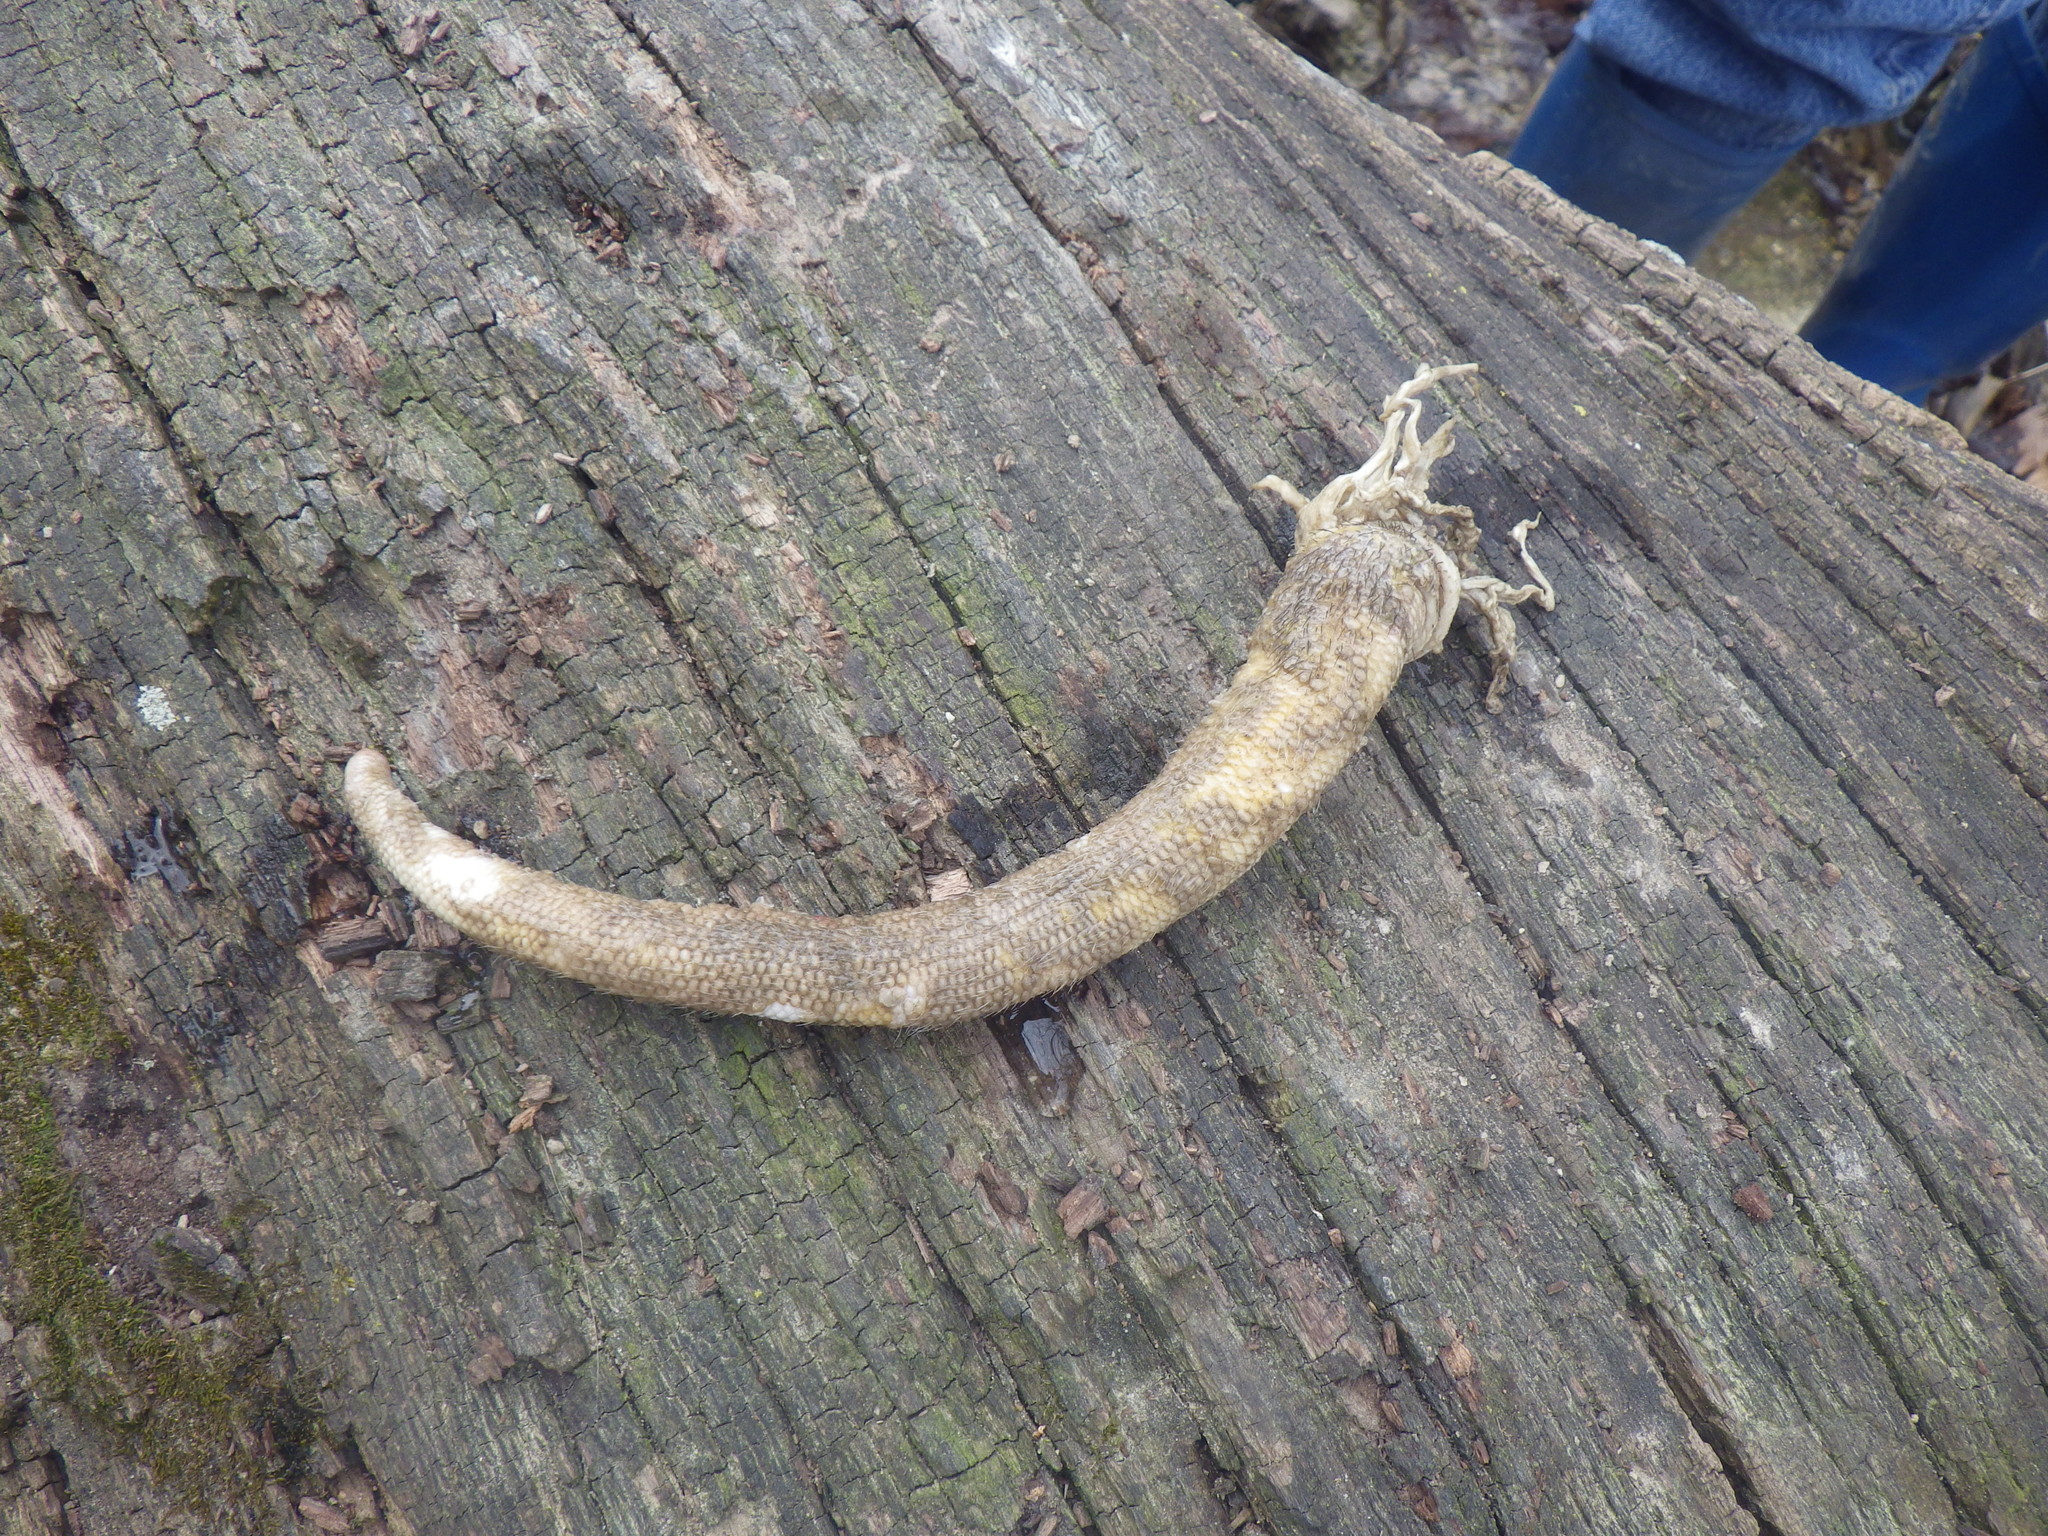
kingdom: Animalia
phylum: Chordata
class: Mammalia
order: Didelphimorphia
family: Didelphidae
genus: Didelphis
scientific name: Didelphis virginiana
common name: Virginia opossum
